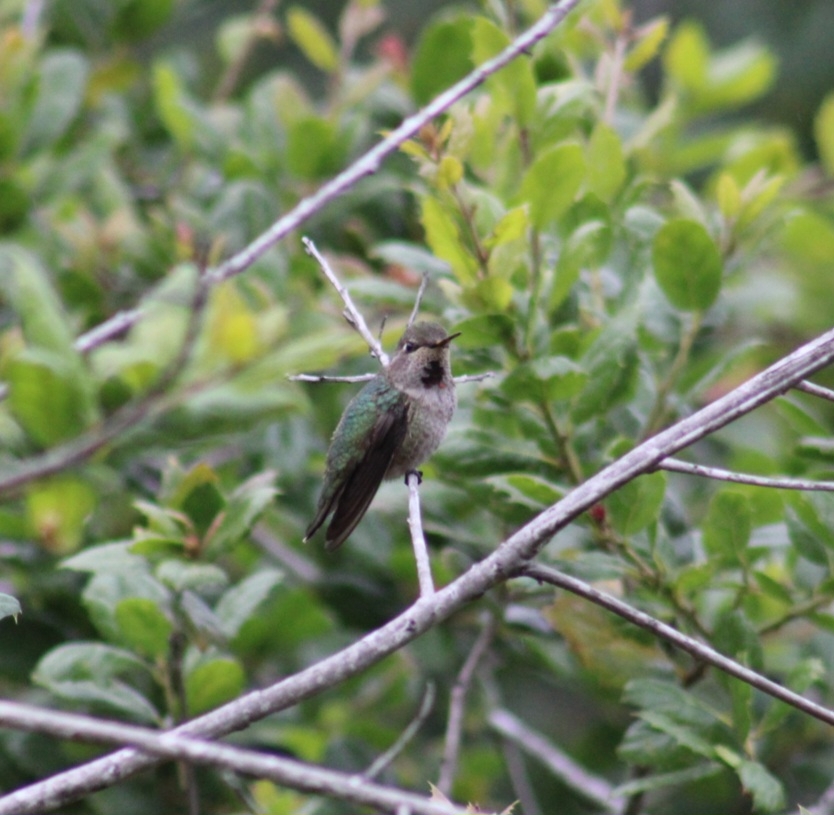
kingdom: Animalia
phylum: Chordata
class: Aves
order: Apodiformes
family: Trochilidae
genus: Calypte
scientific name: Calypte anna
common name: Anna's hummingbird
